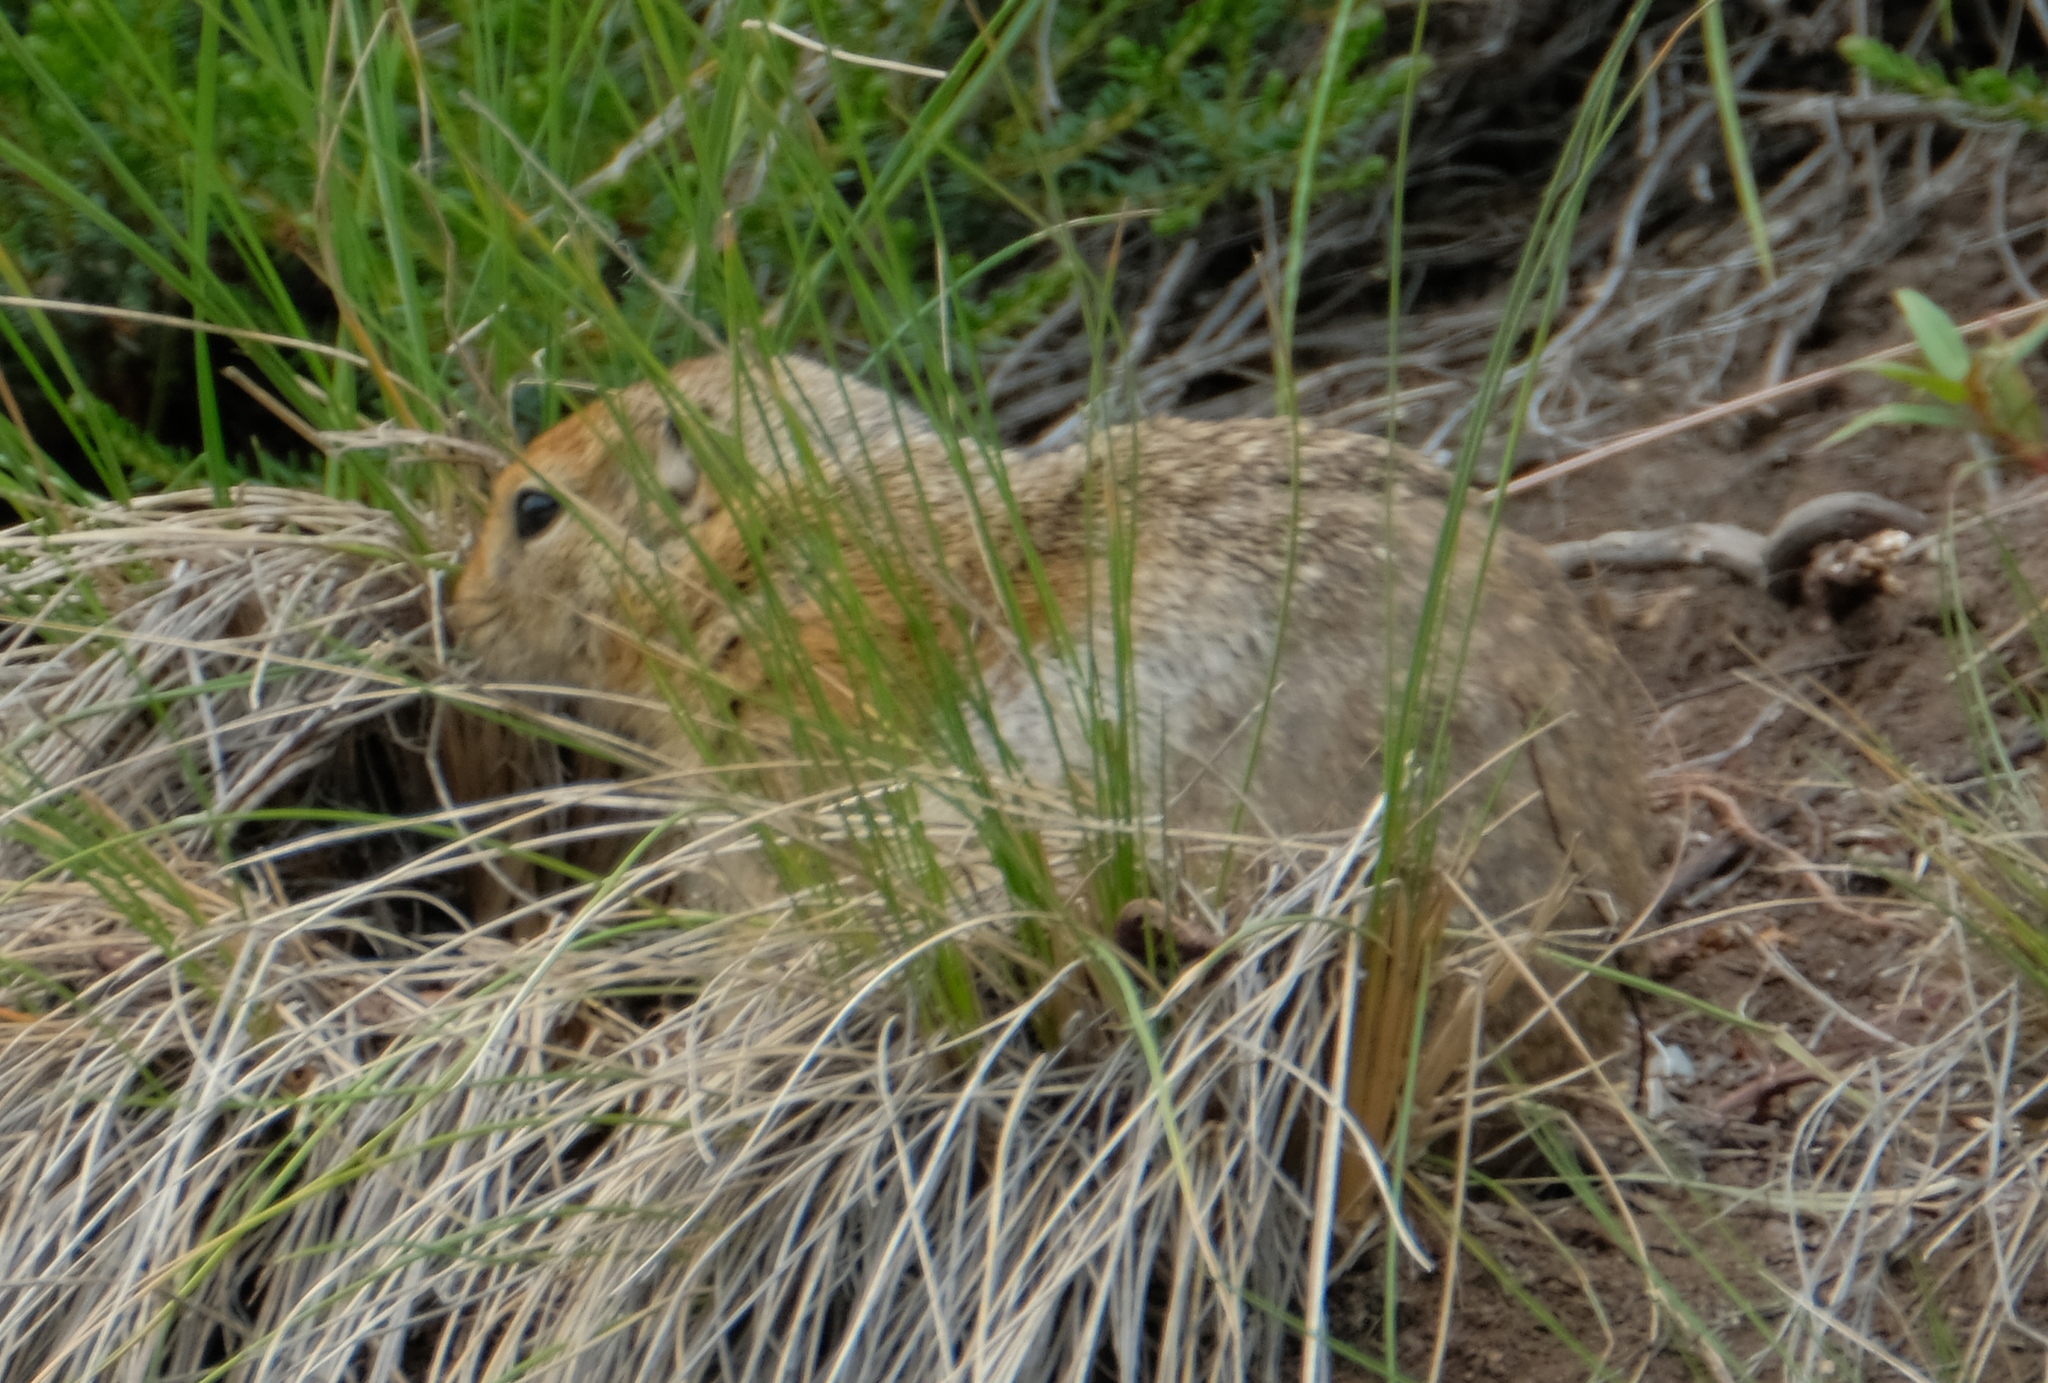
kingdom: Animalia
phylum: Chordata
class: Mammalia
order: Rodentia
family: Sciuridae
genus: Urocitellus
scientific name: Urocitellus parryii
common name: Arctic ground squirrel
